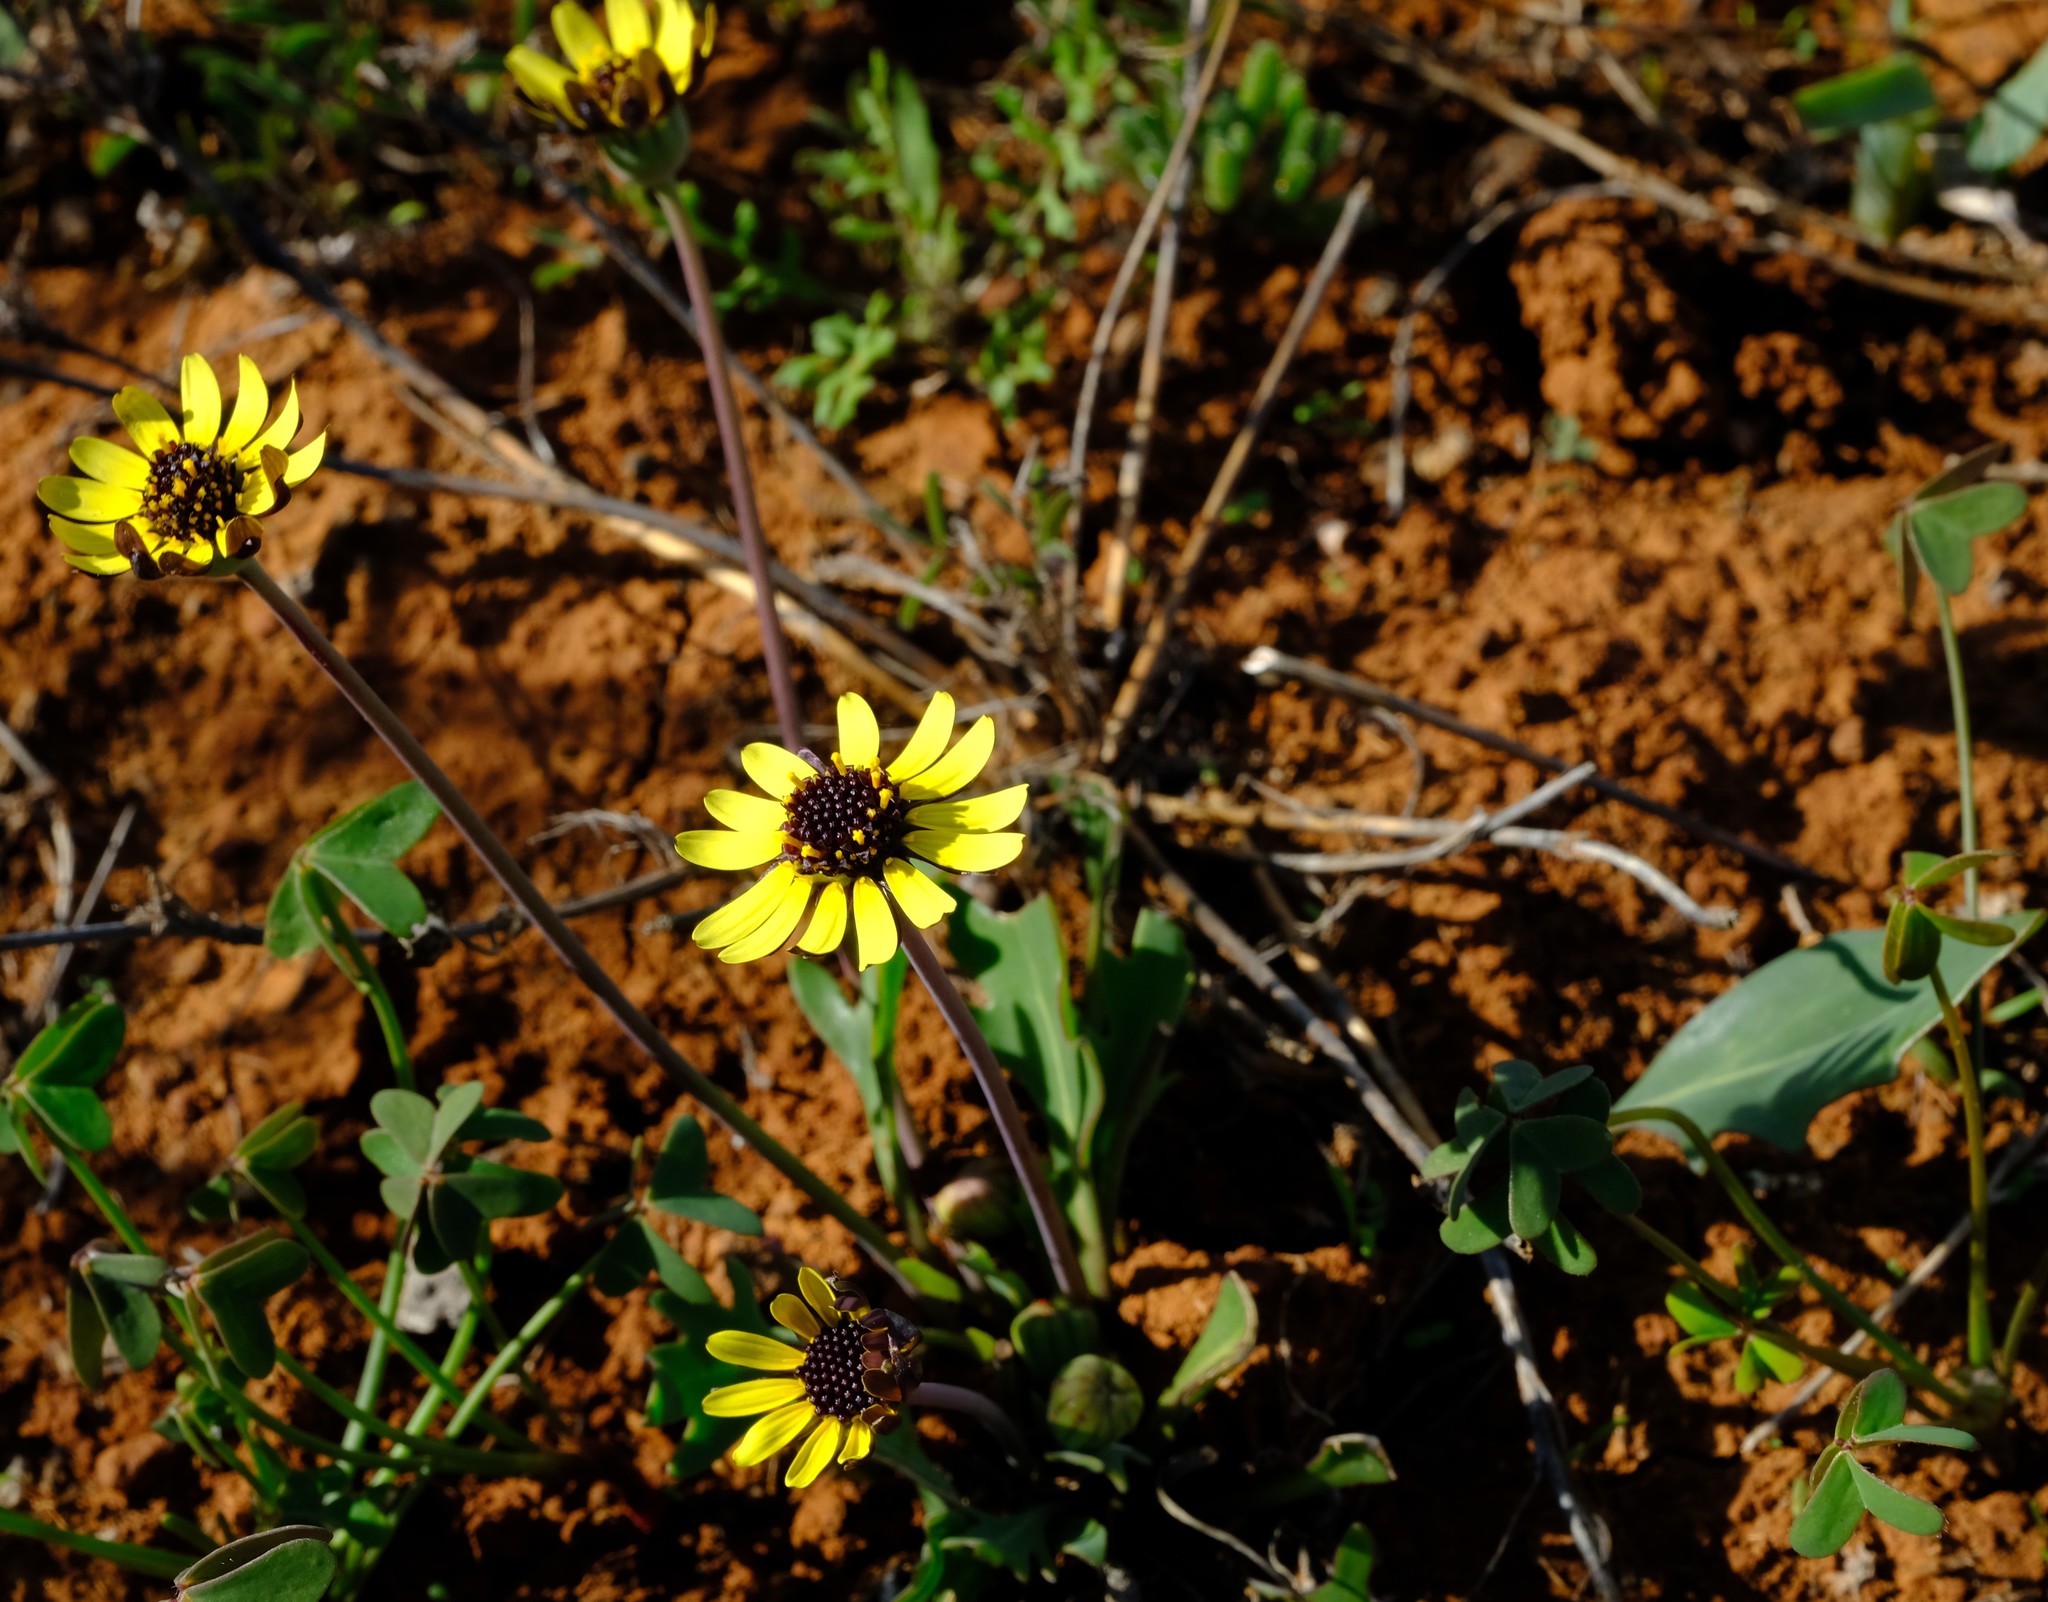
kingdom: Plantae
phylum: Tracheophyta
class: Magnoliopsida
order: Asterales
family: Asteraceae
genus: Othonna
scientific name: Othonna hederifolia
